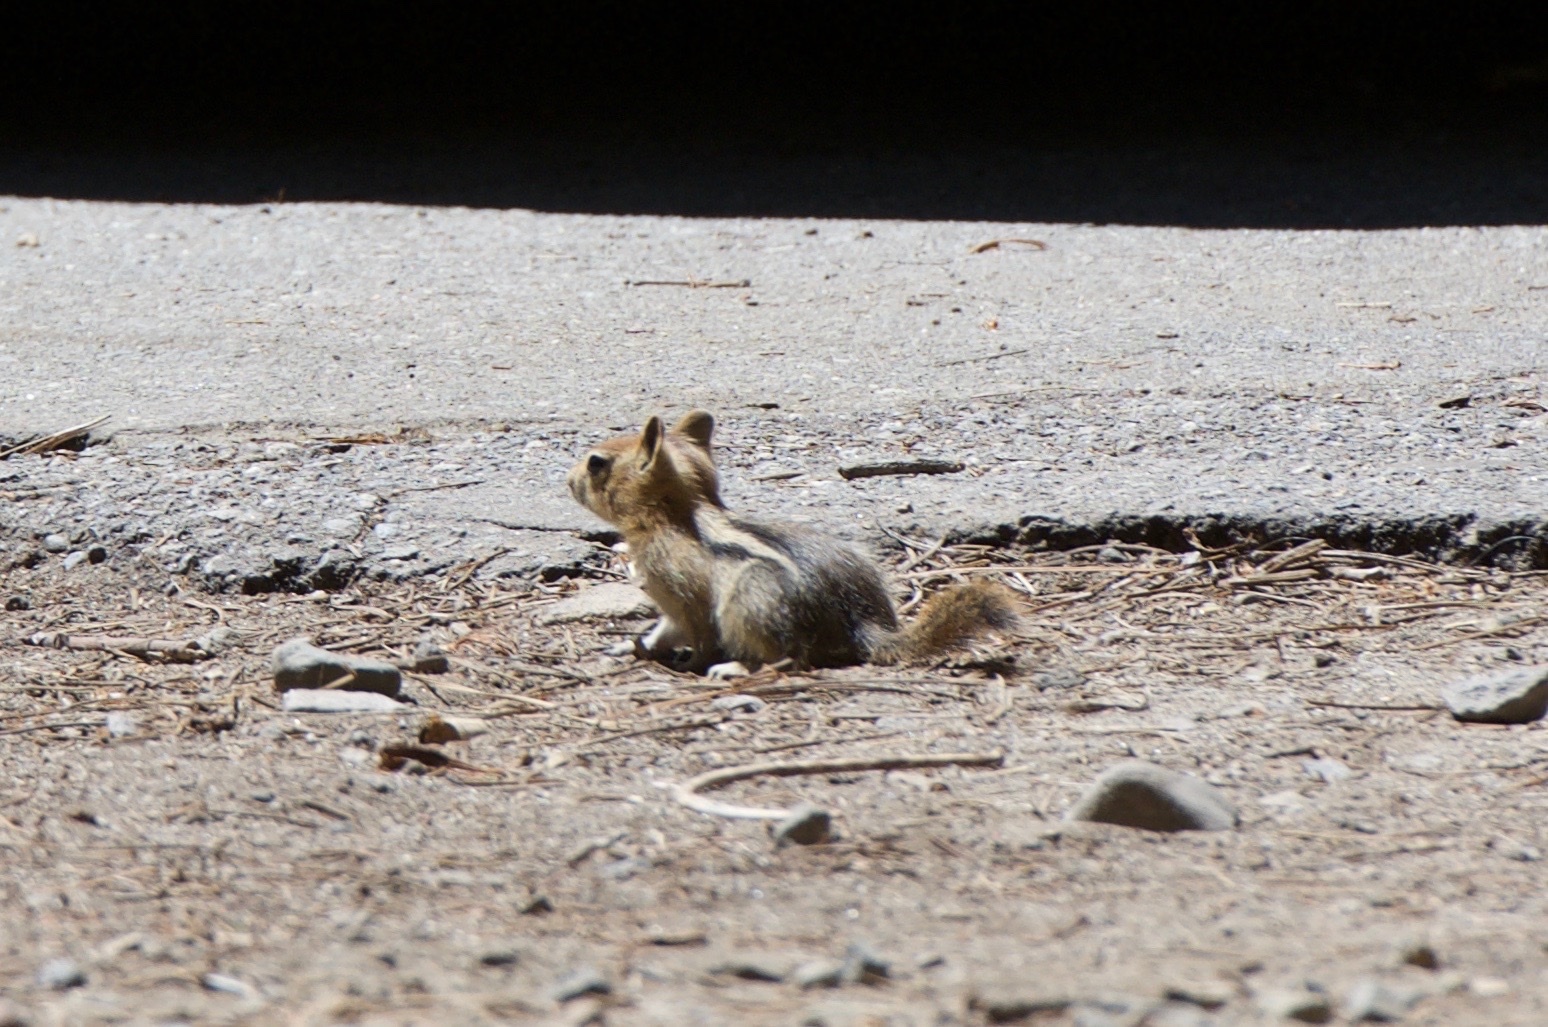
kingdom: Animalia
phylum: Chordata
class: Mammalia
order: Rodentia
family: Sciuridae
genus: Callospermophilus
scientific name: Callospermophilus lateralis
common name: Golden-mantled ground squirrel
